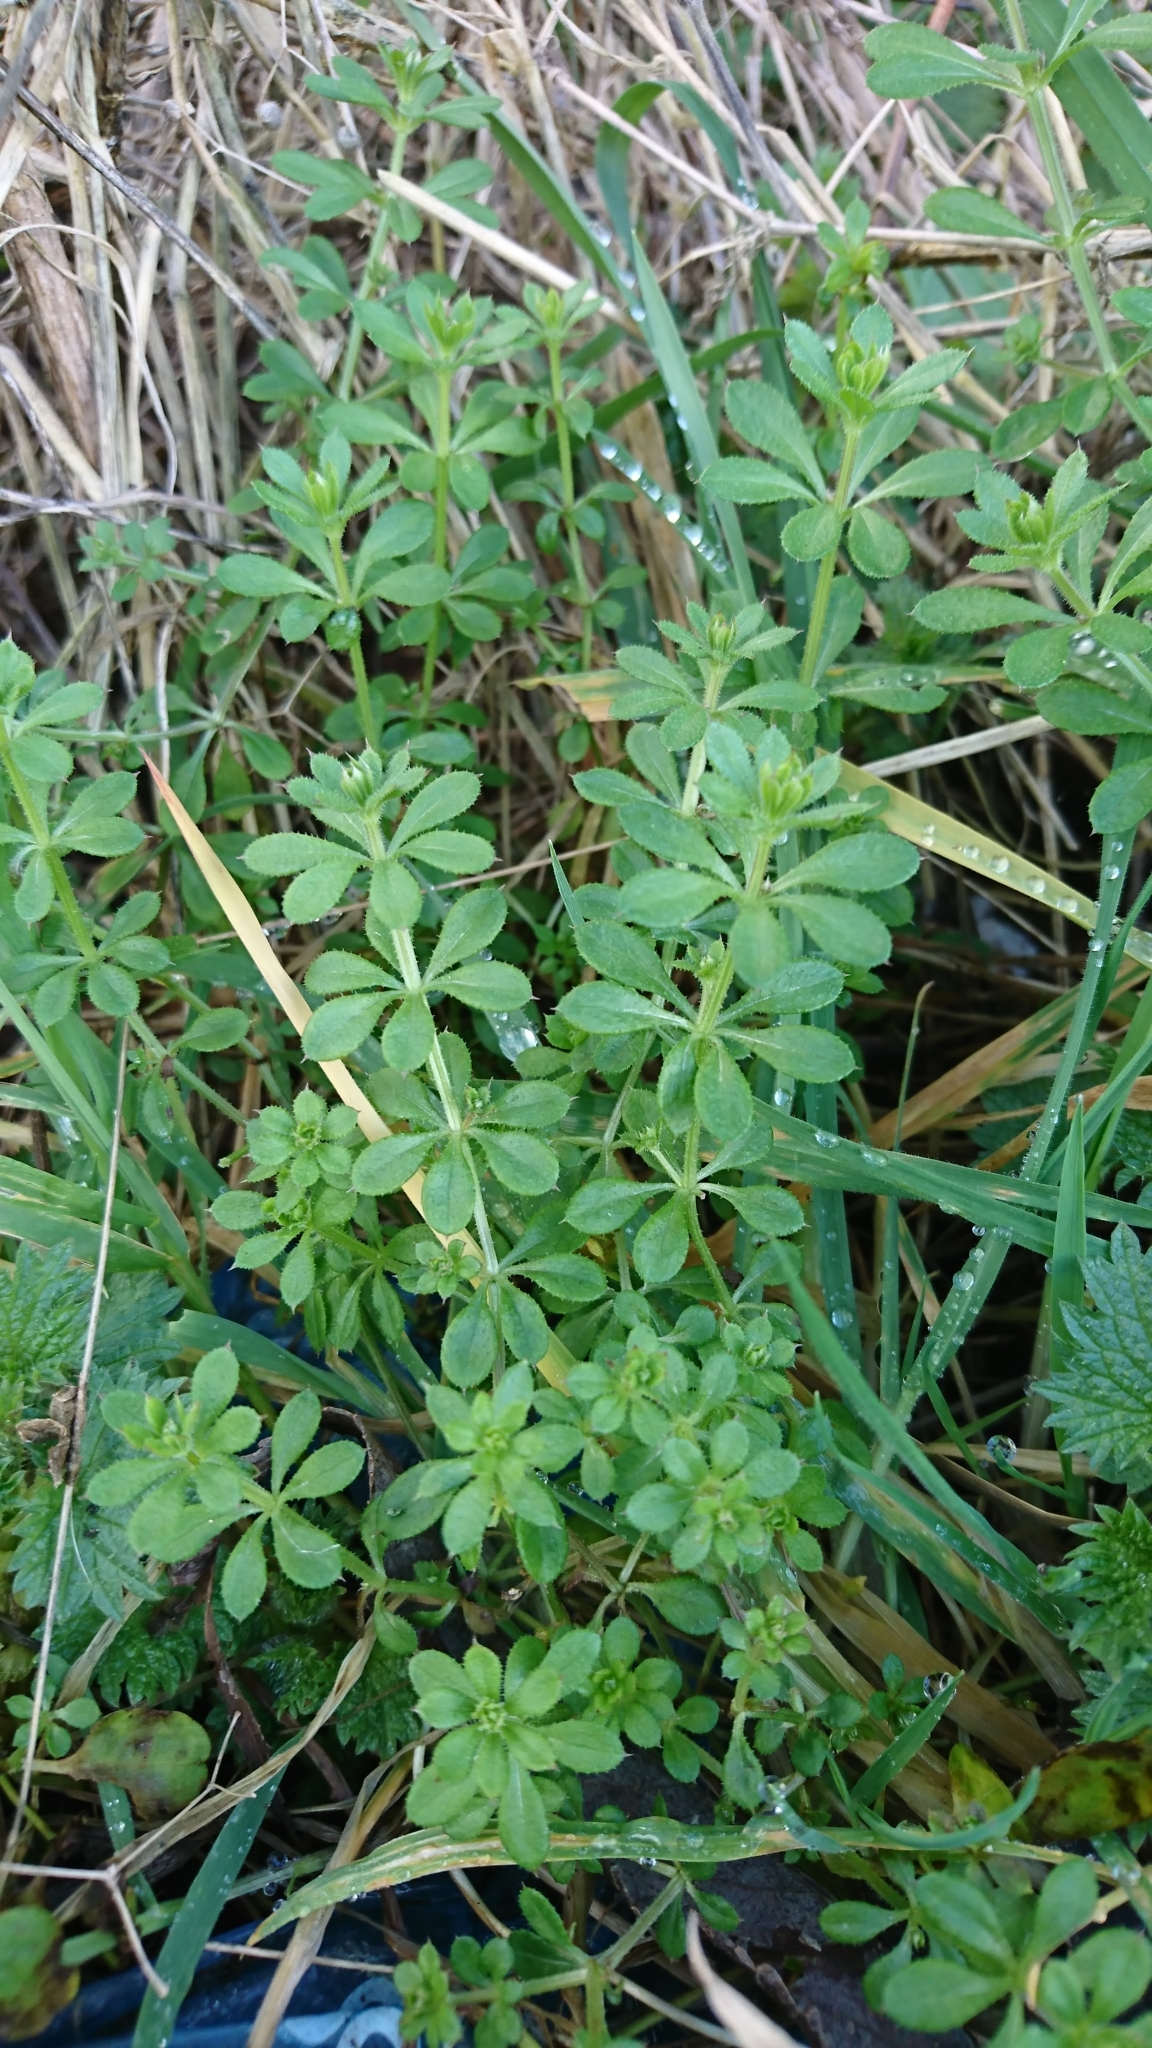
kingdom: Plantae
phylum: Tracheophyta
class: Magnoliopsida
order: Gentianales
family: Rubiaceae
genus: Galium
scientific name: Galium aparine
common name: Cleavers
